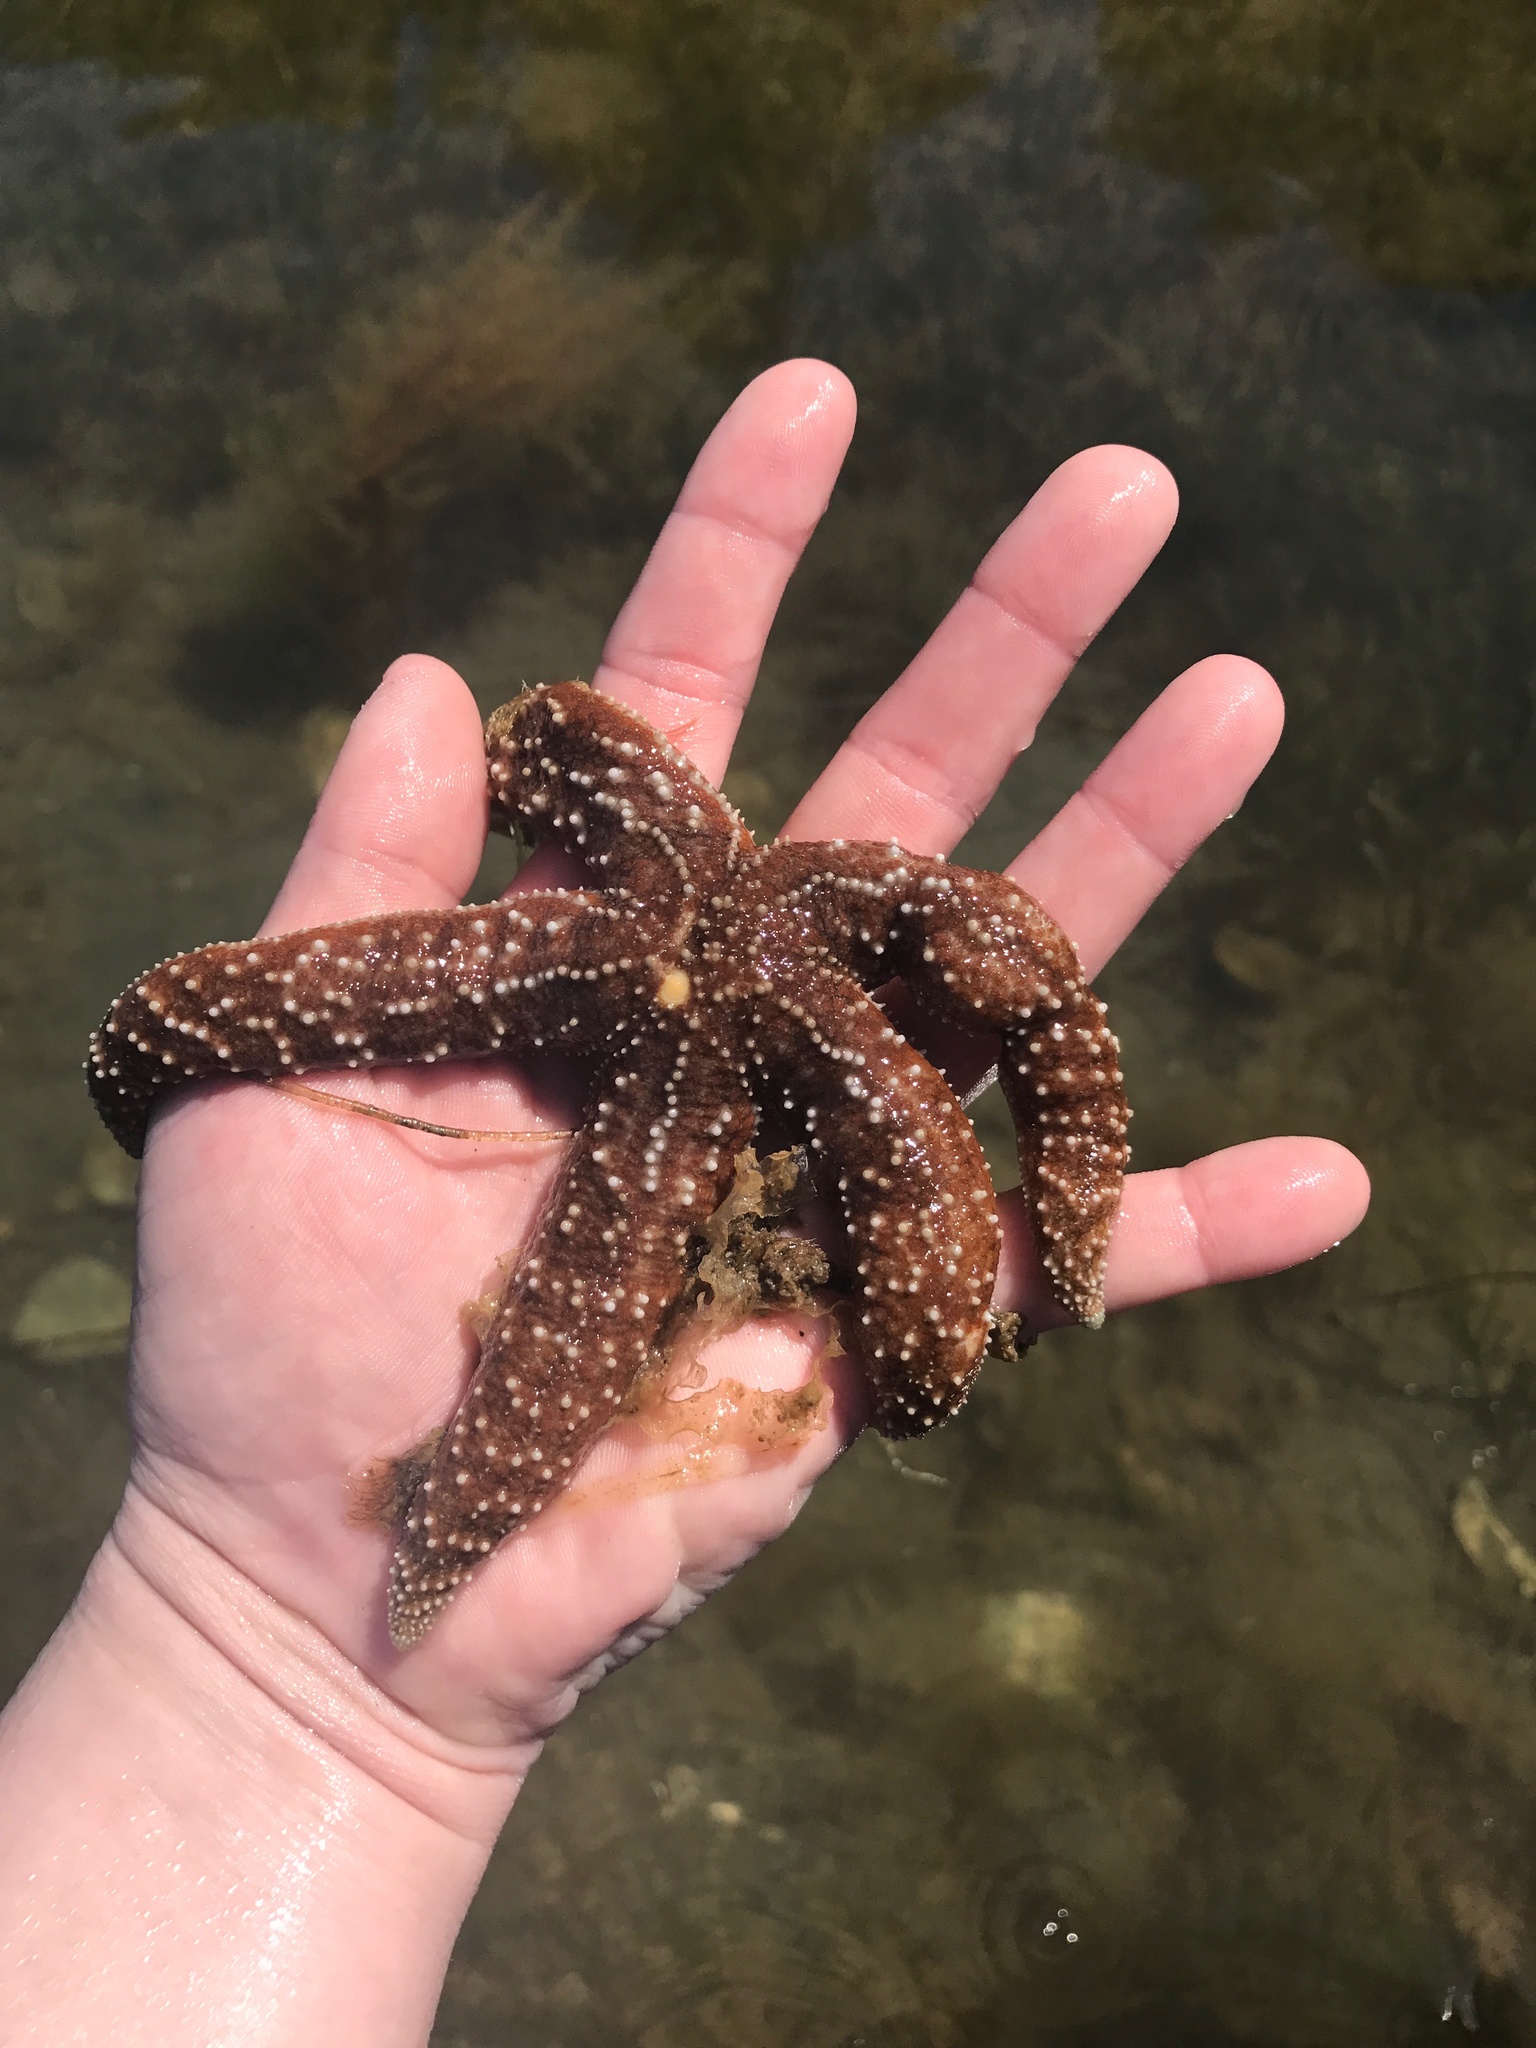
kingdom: Animalia
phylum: Echinodermata
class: Asteroidea
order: Forcipulatida
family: Asteriidae
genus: Evasterias
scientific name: Evasterias troschelii
